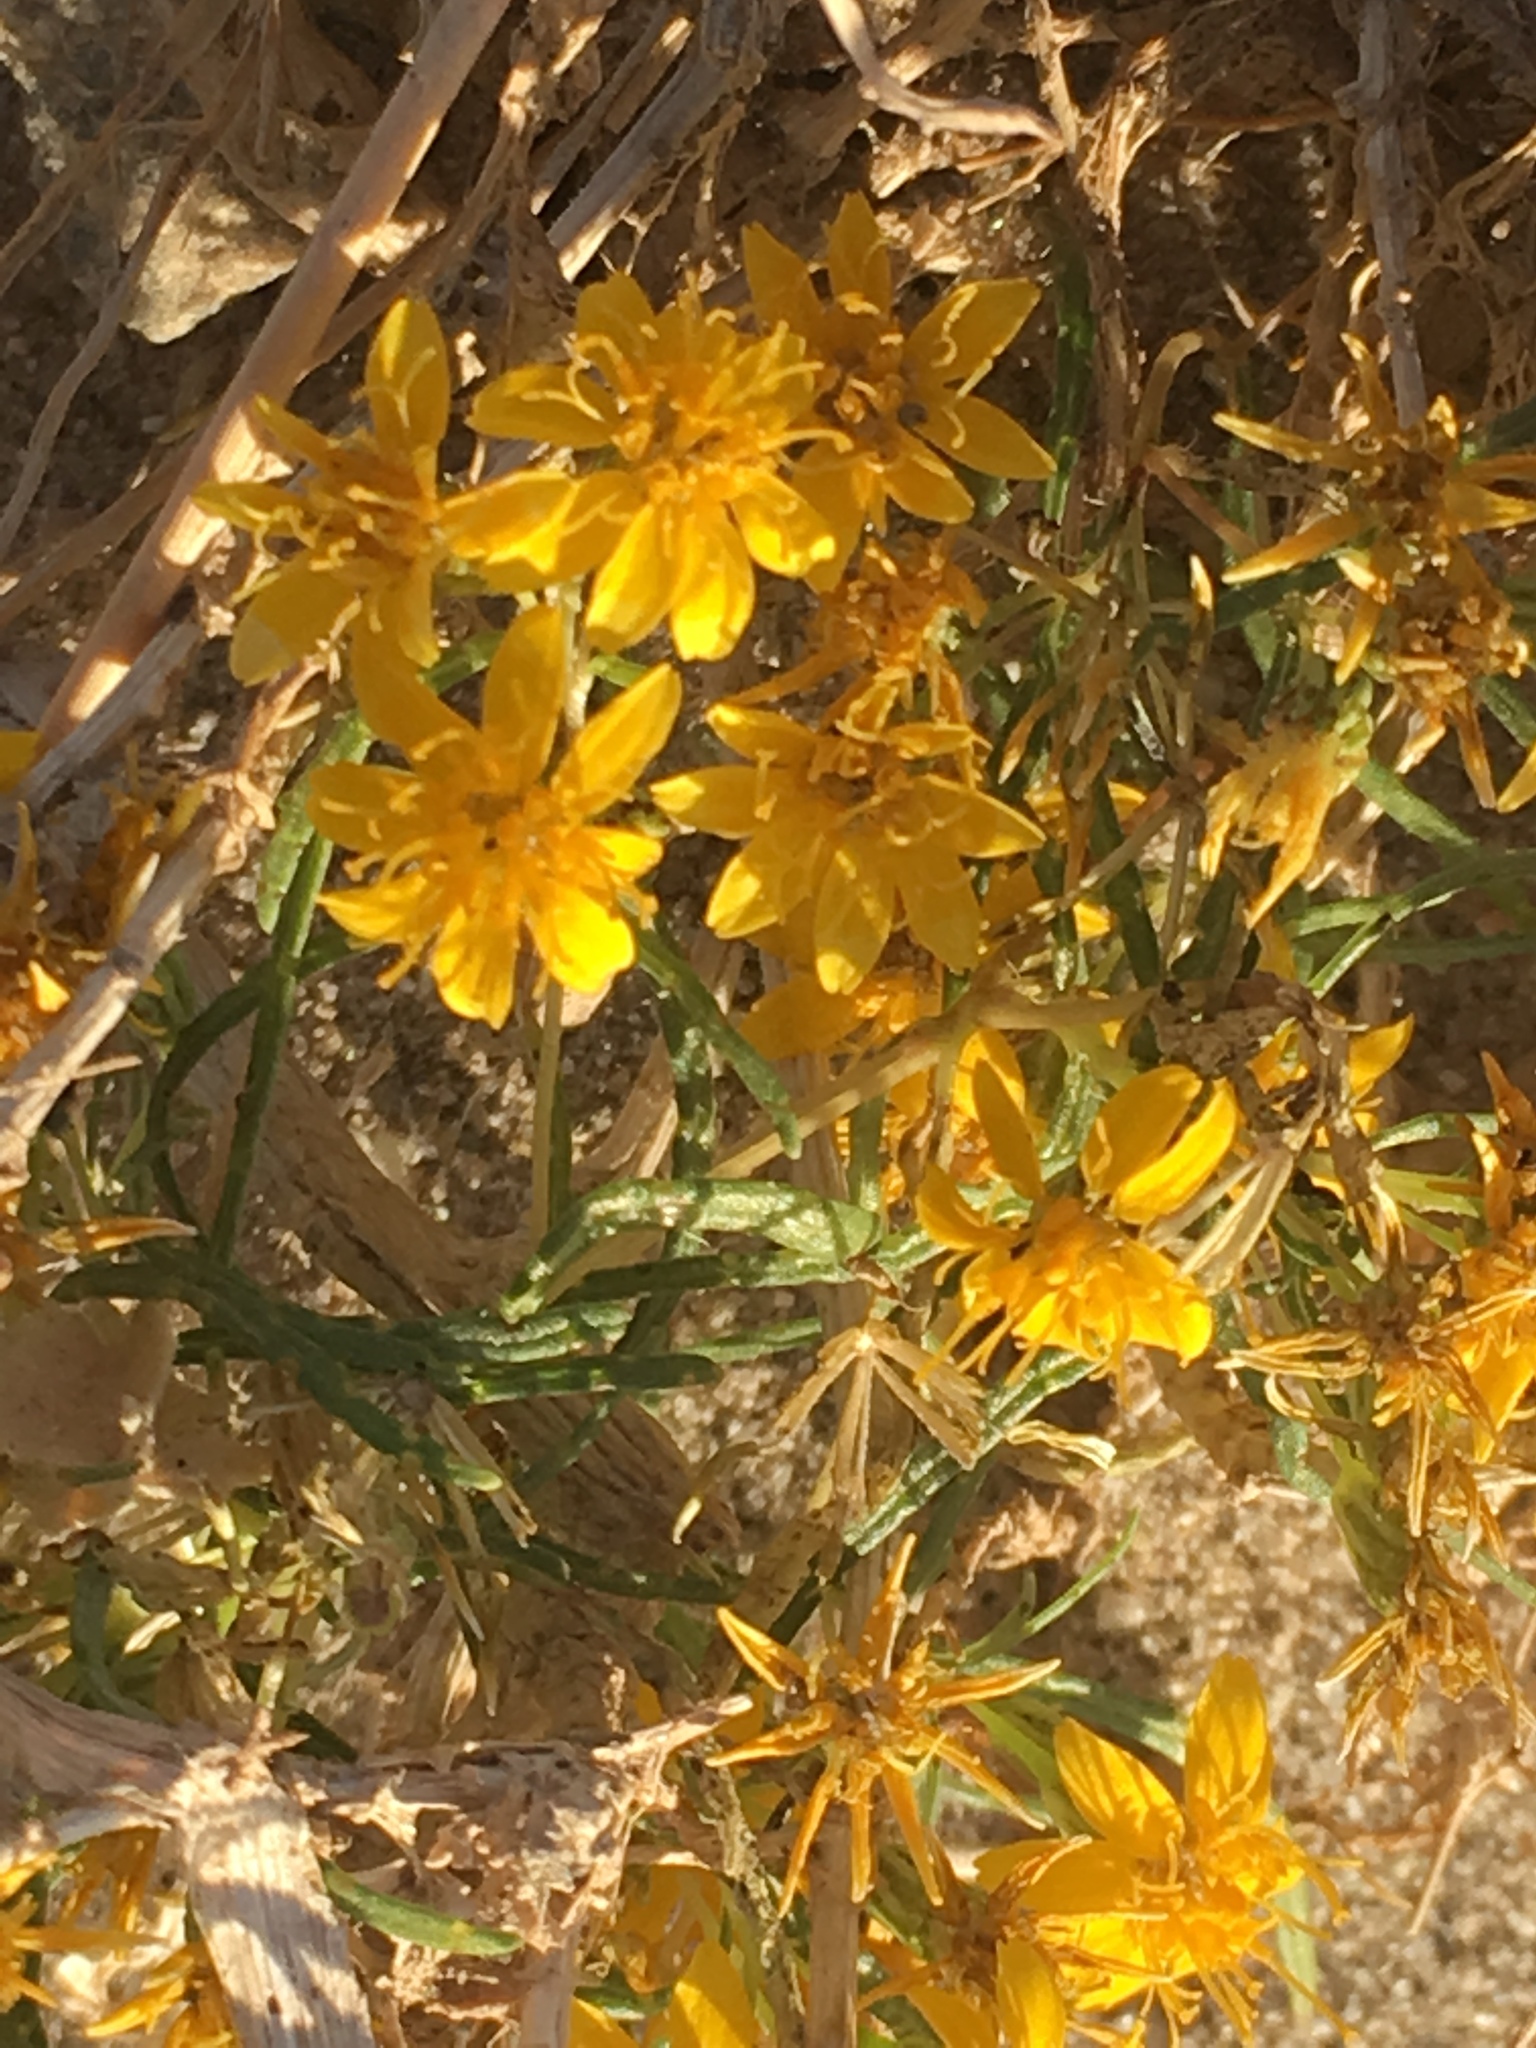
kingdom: Plantae
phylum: Tracheophyta
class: Magnoliopsida
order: Asterales
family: Asteraceae
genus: Pectis
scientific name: Pectis papposa
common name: Many-bristle chinchweed
